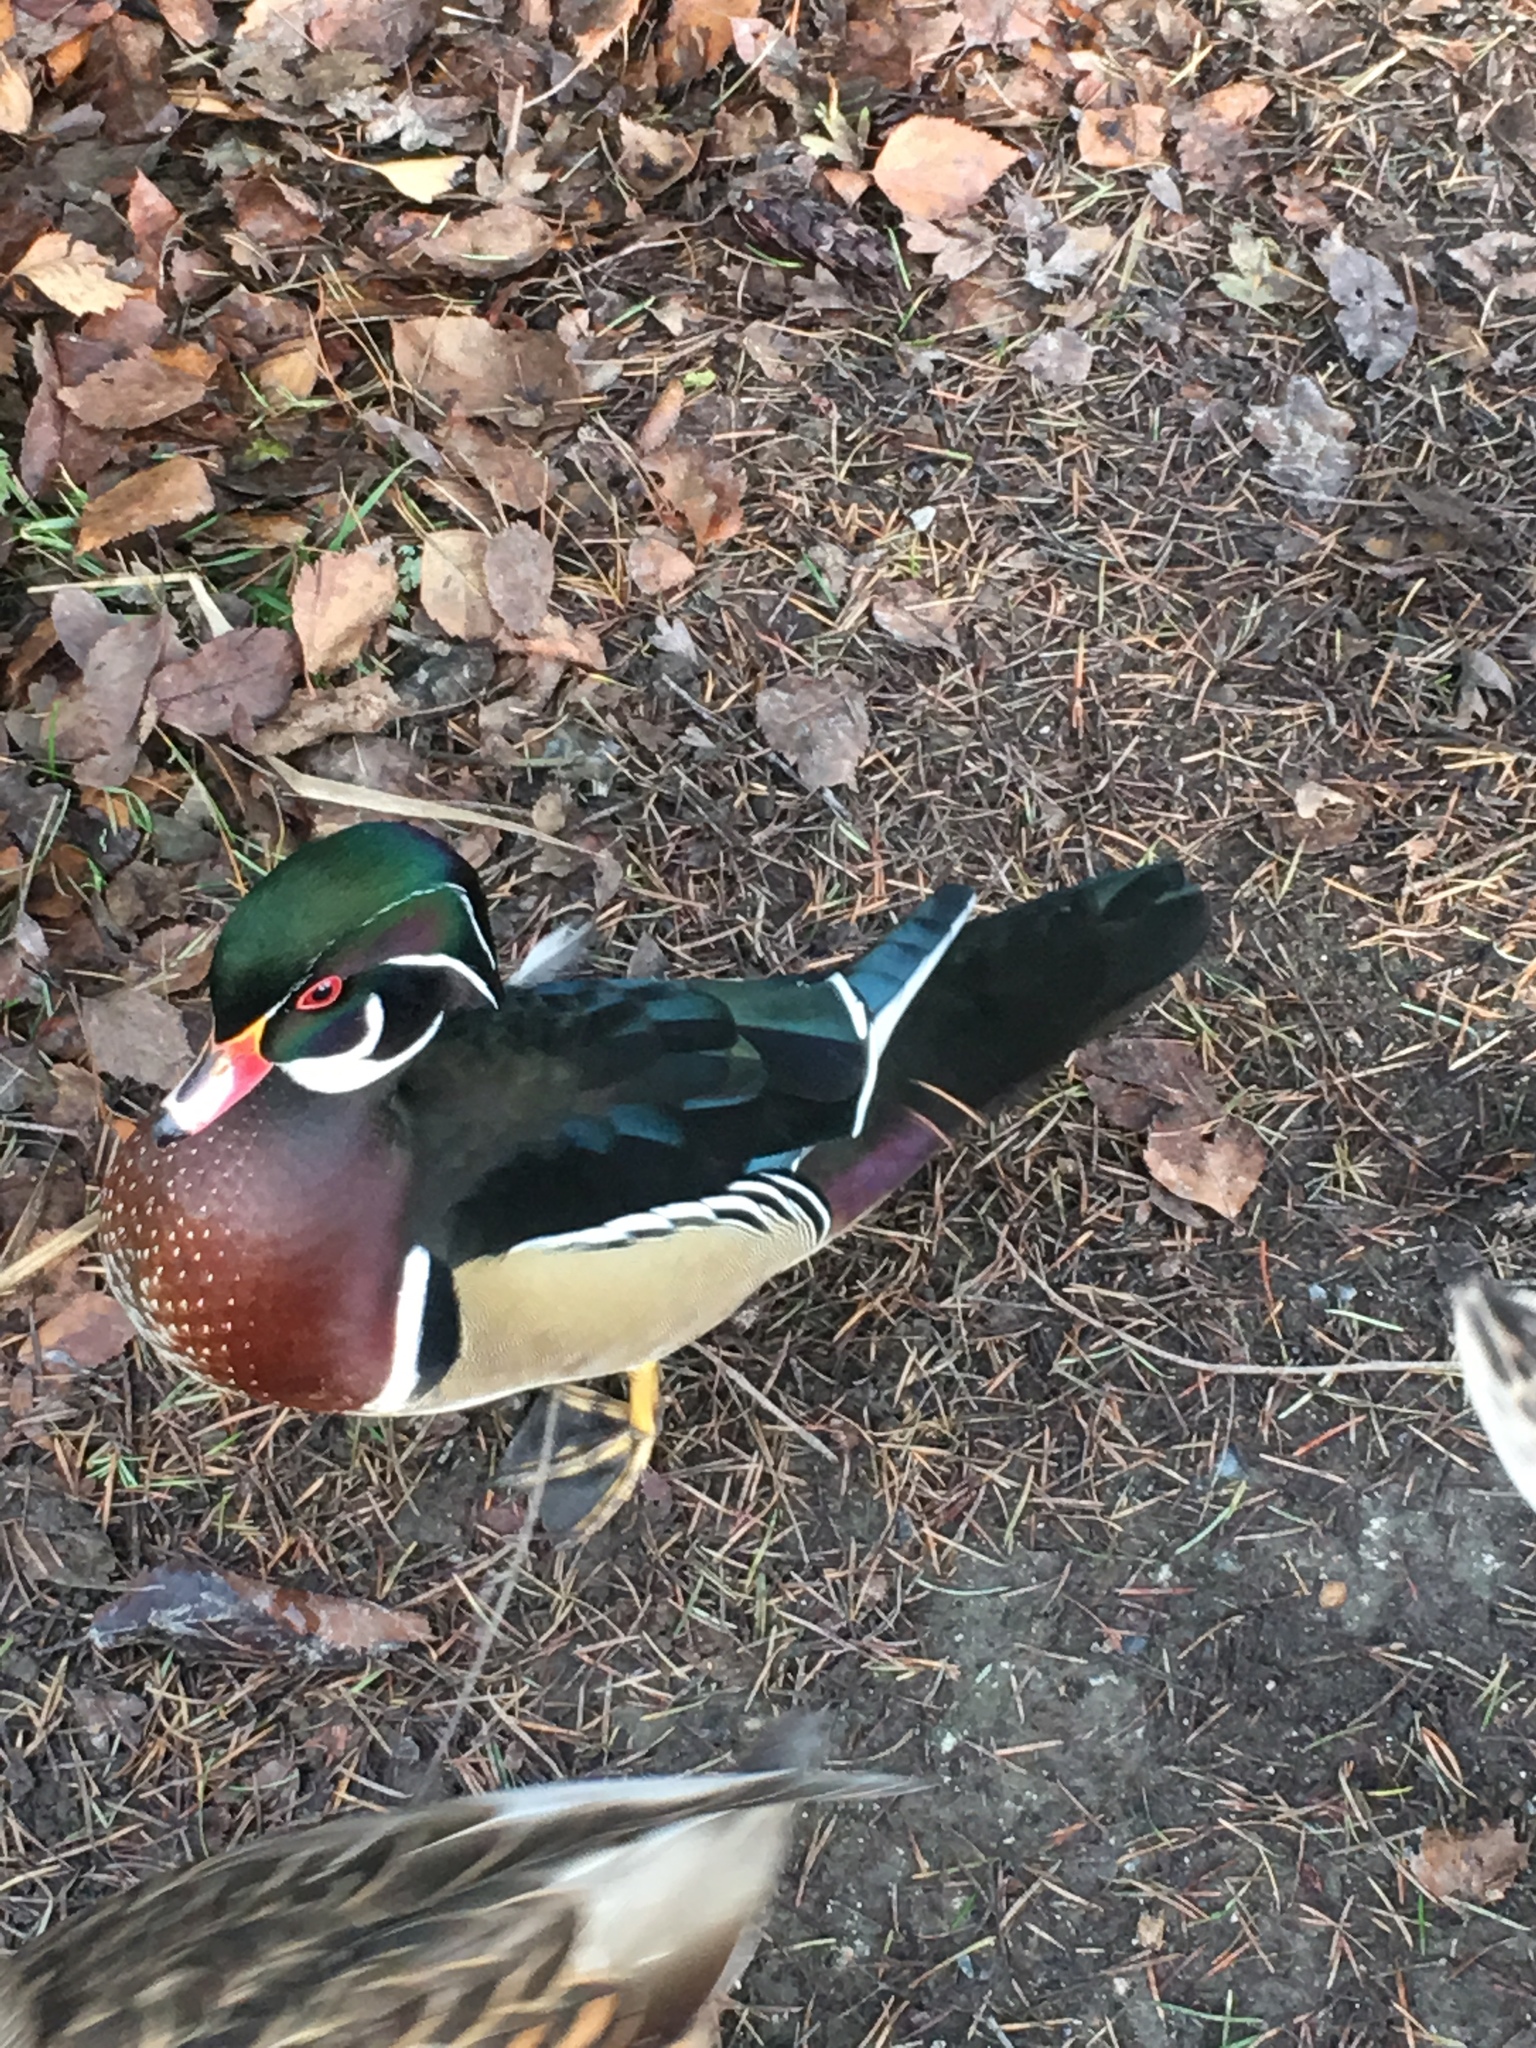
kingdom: Animalia
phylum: Chordata
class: Aves
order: Anseriformes
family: Anatidae
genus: Aix
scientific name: Aix sponsa
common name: Wood duck
